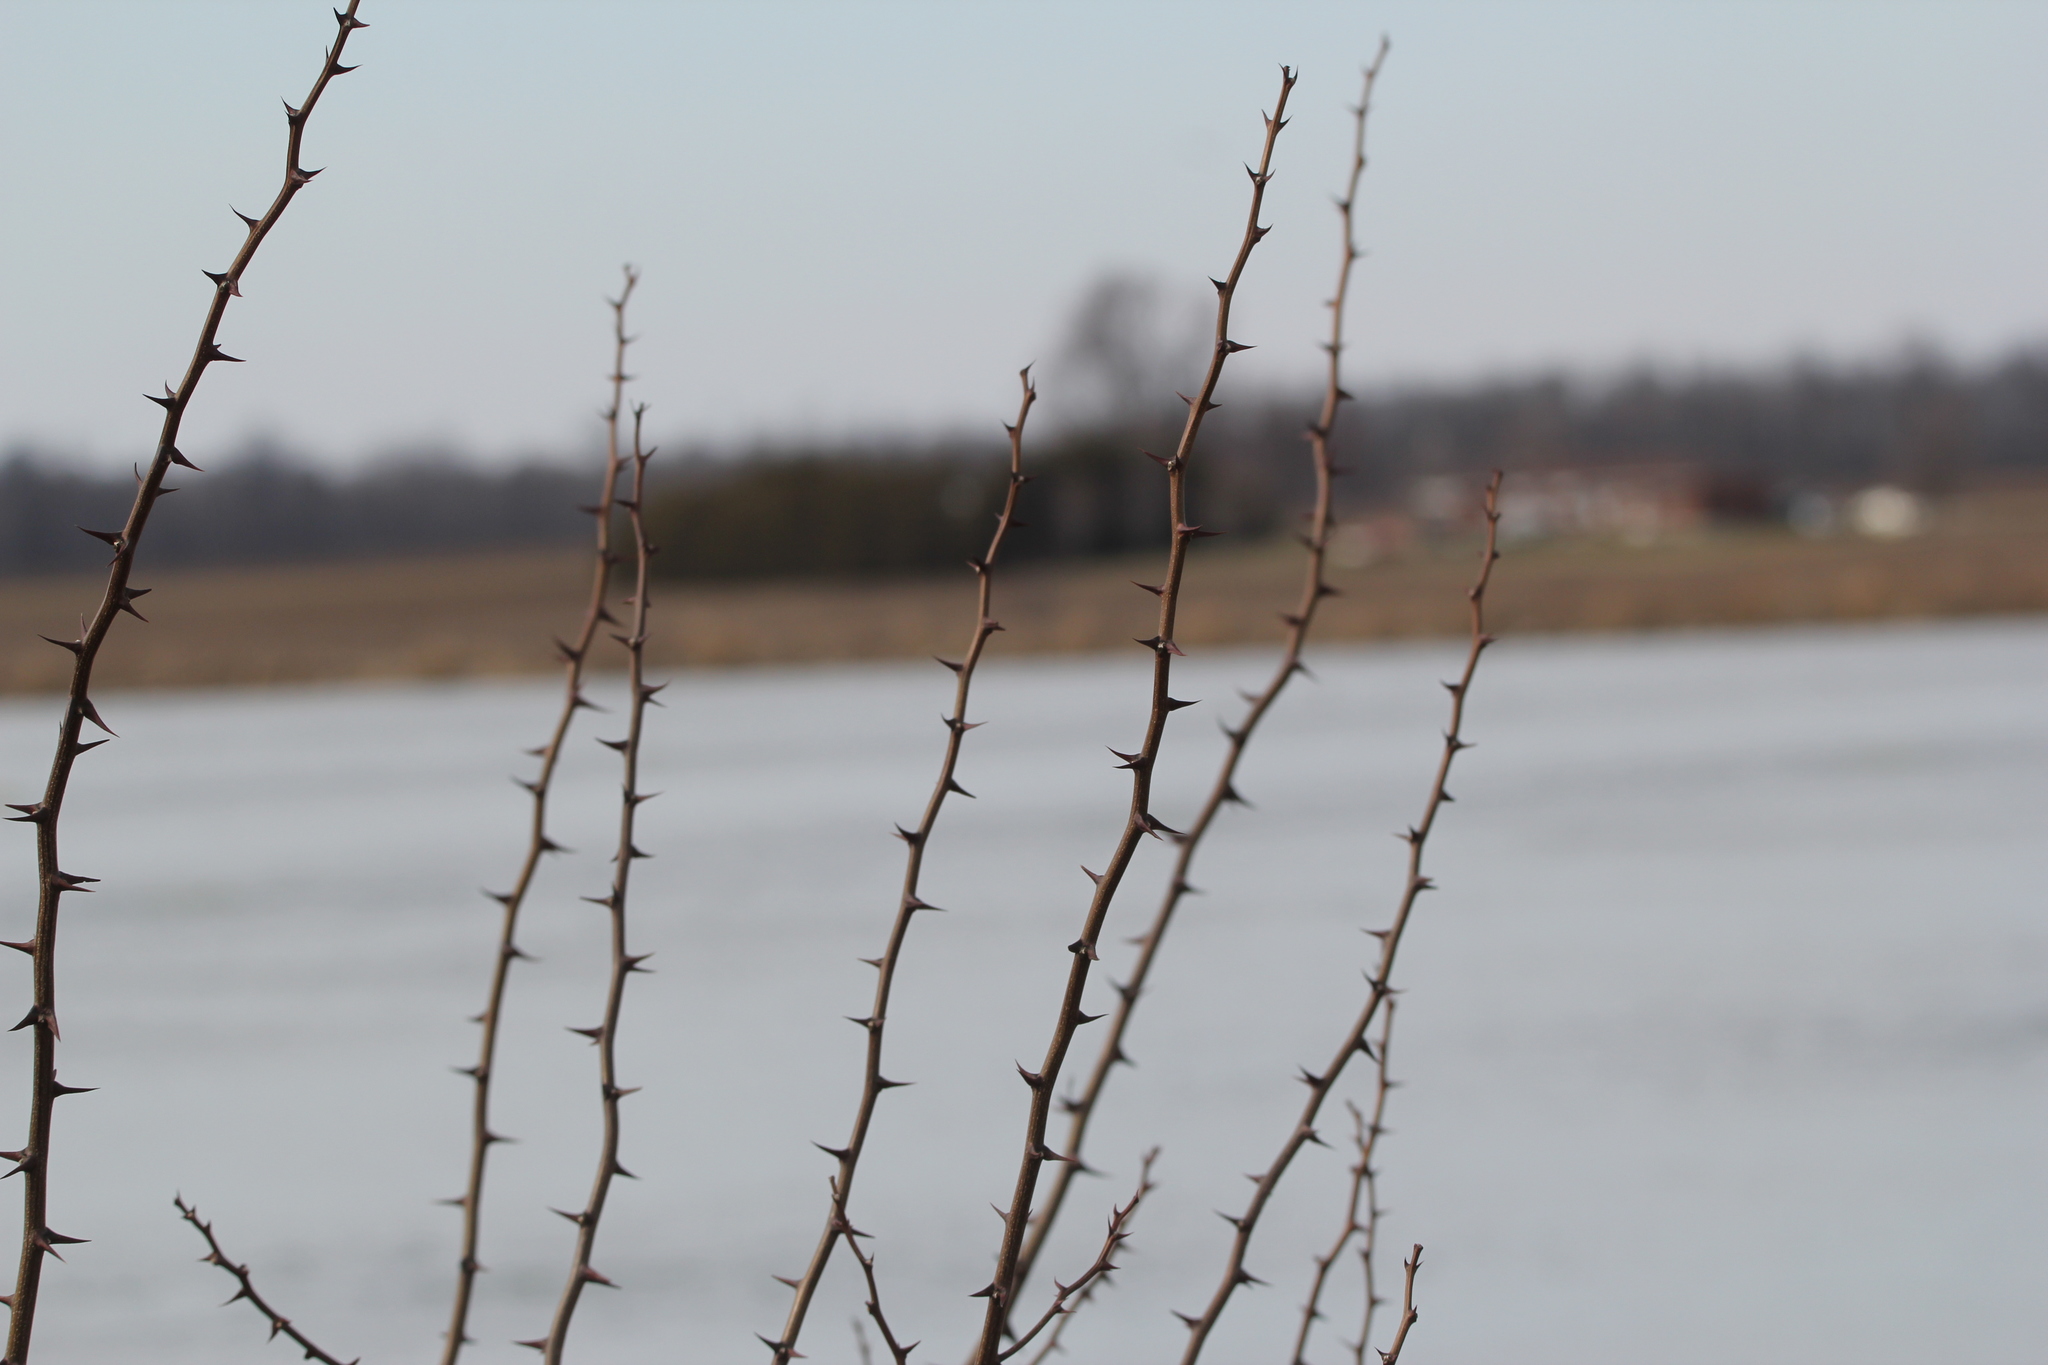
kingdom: Plantae
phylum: Tracheophyta
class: Magnoliopsida
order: Fabales
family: Fabaceae
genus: Robinia
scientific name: Robinia pseudoacacia
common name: Black locust
